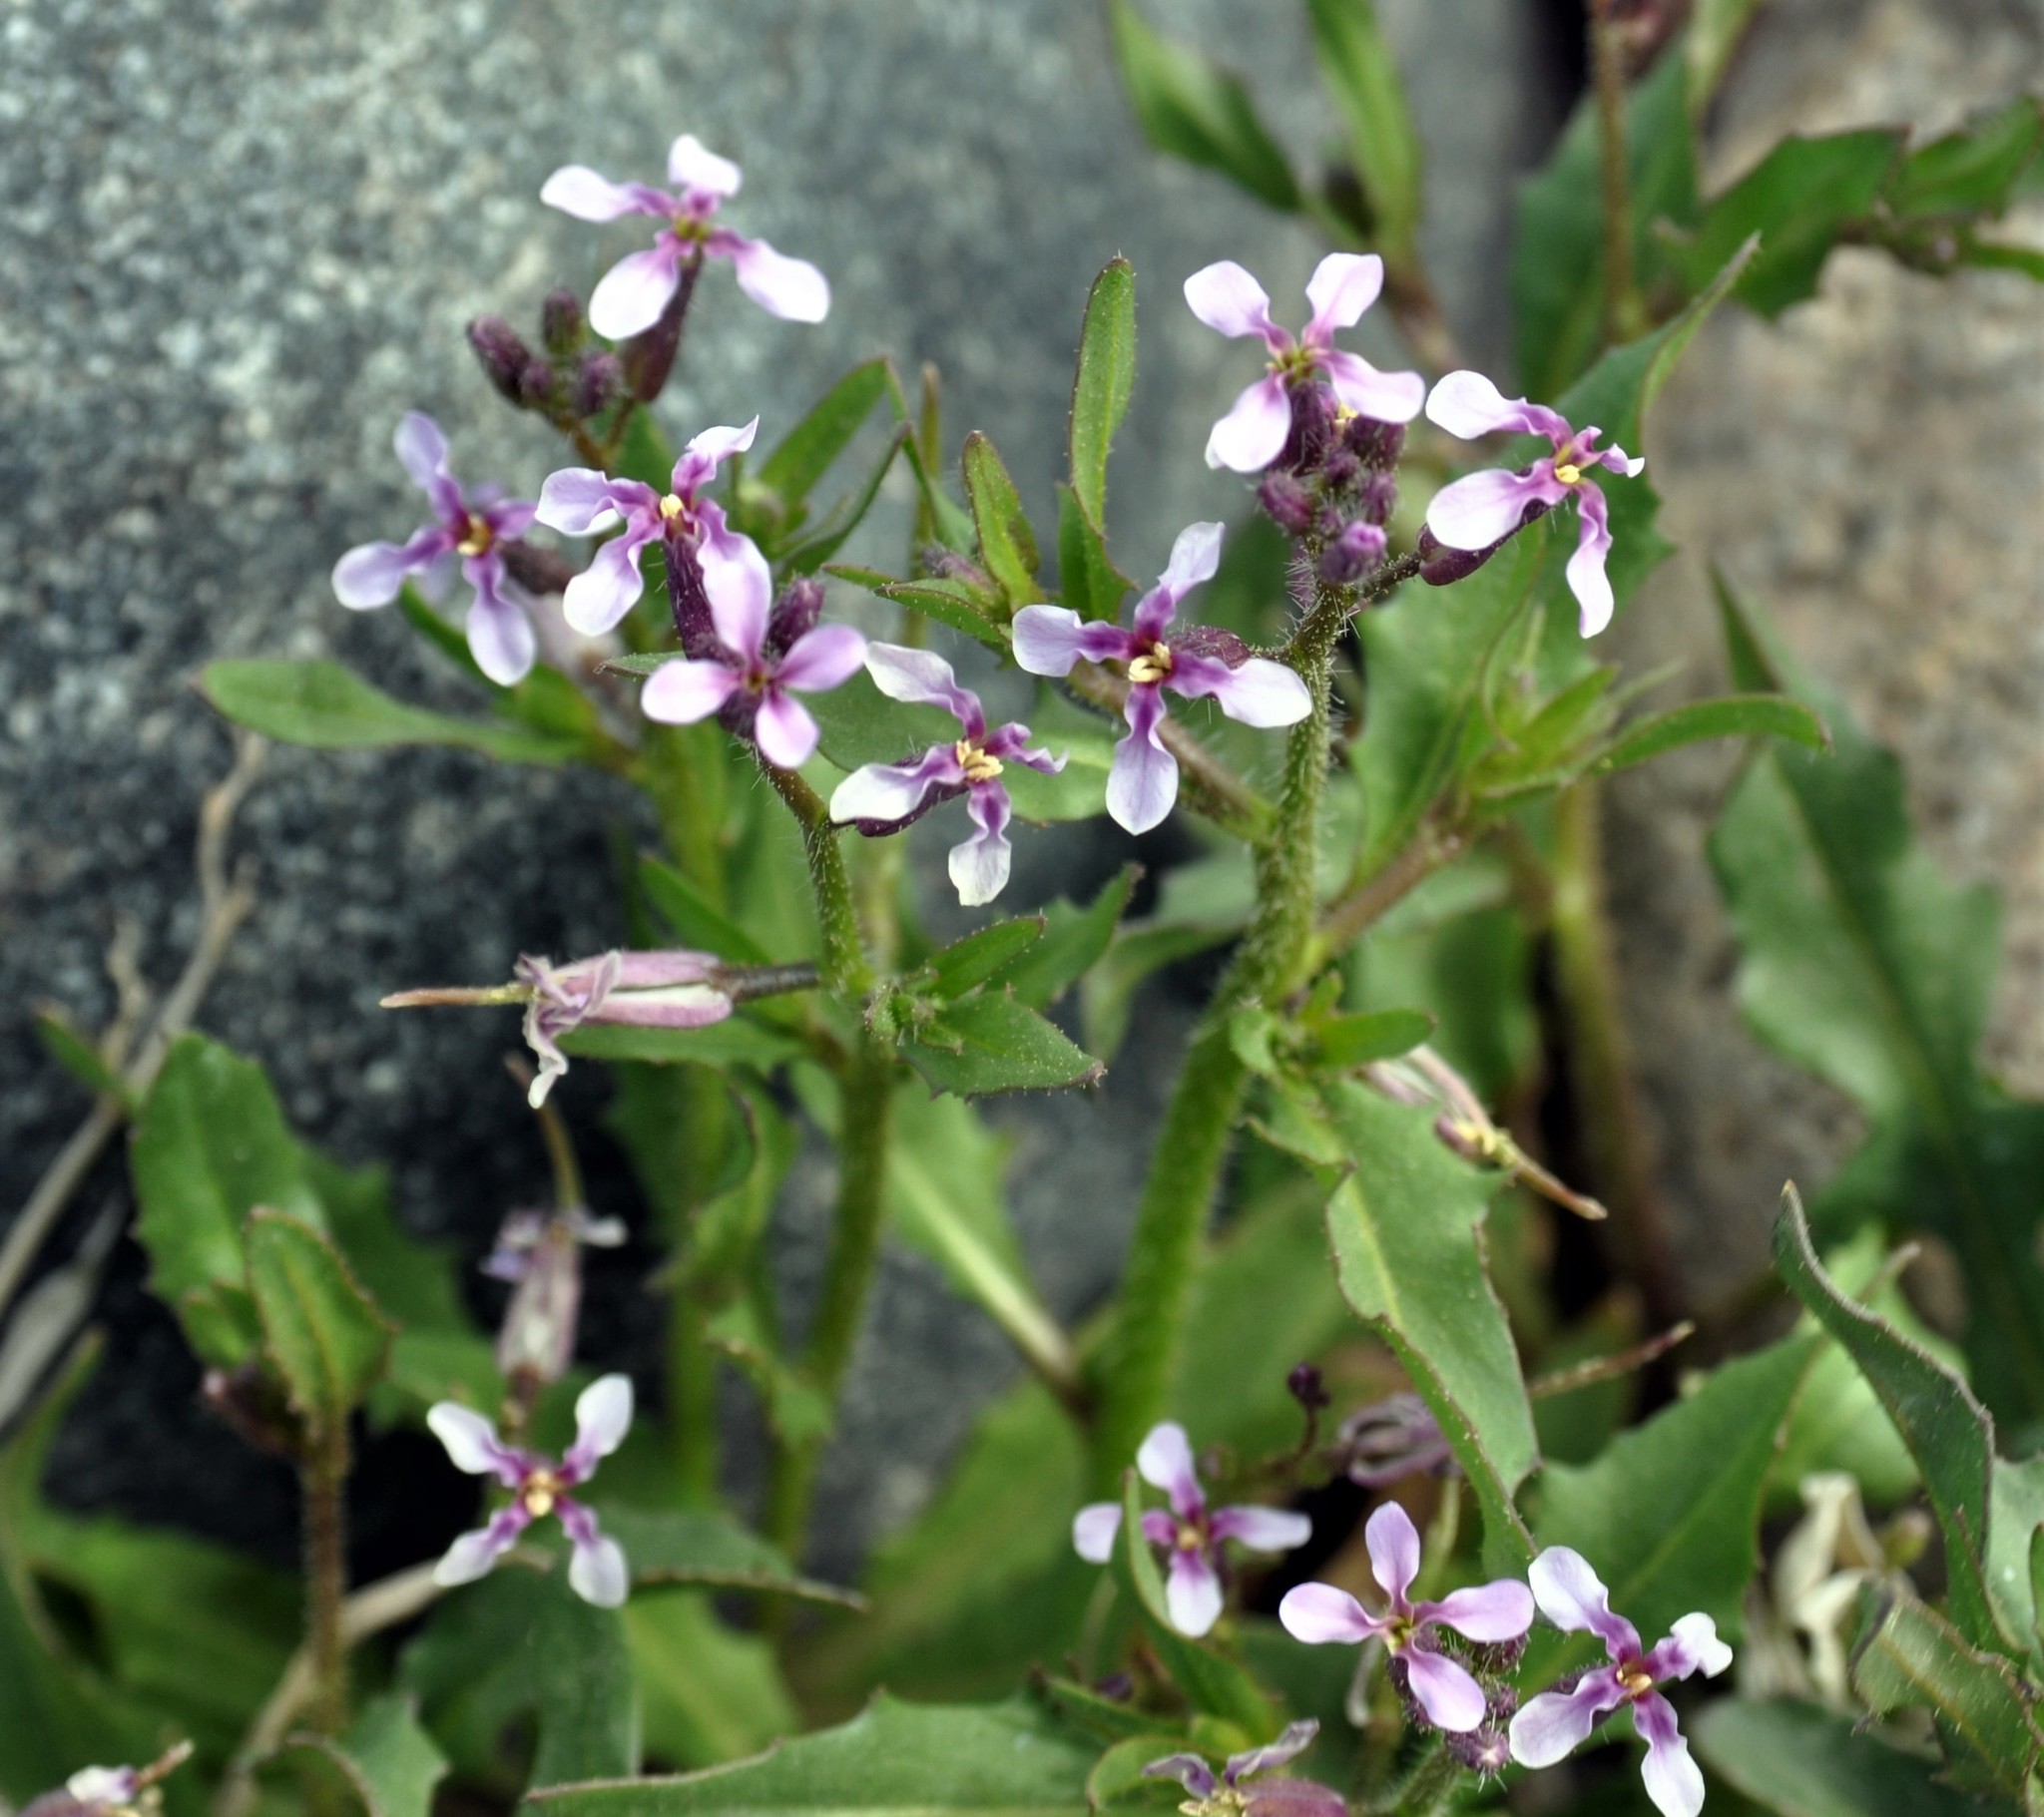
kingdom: Plantae
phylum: Tracheophyta
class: Magnoliopsida
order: Brassicales
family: Brassicaceae
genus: Chorispora
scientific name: Chorispora tenella
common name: Crossflower
